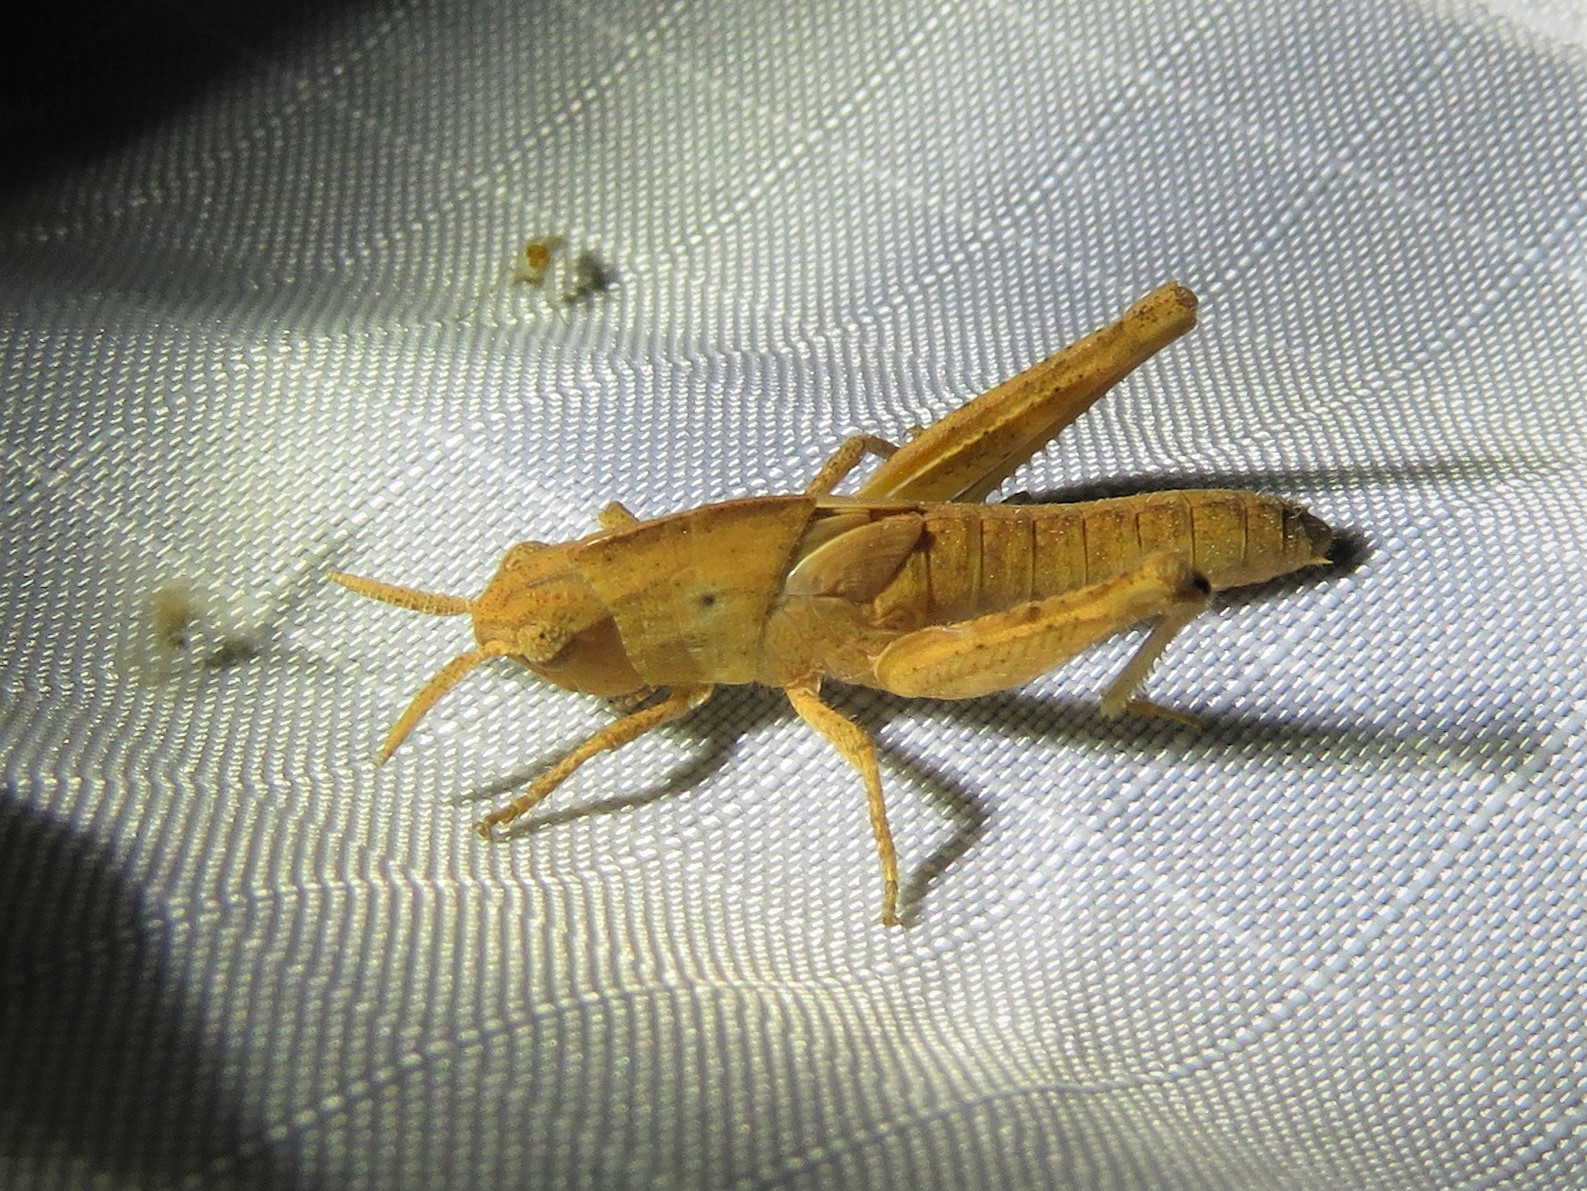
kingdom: Animalia
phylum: Arthropoda
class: Insecta
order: Orthoptera
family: Acrididae
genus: Chortophaga
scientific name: Chortophaga viridifasciata
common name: Green-striped grasshopper
